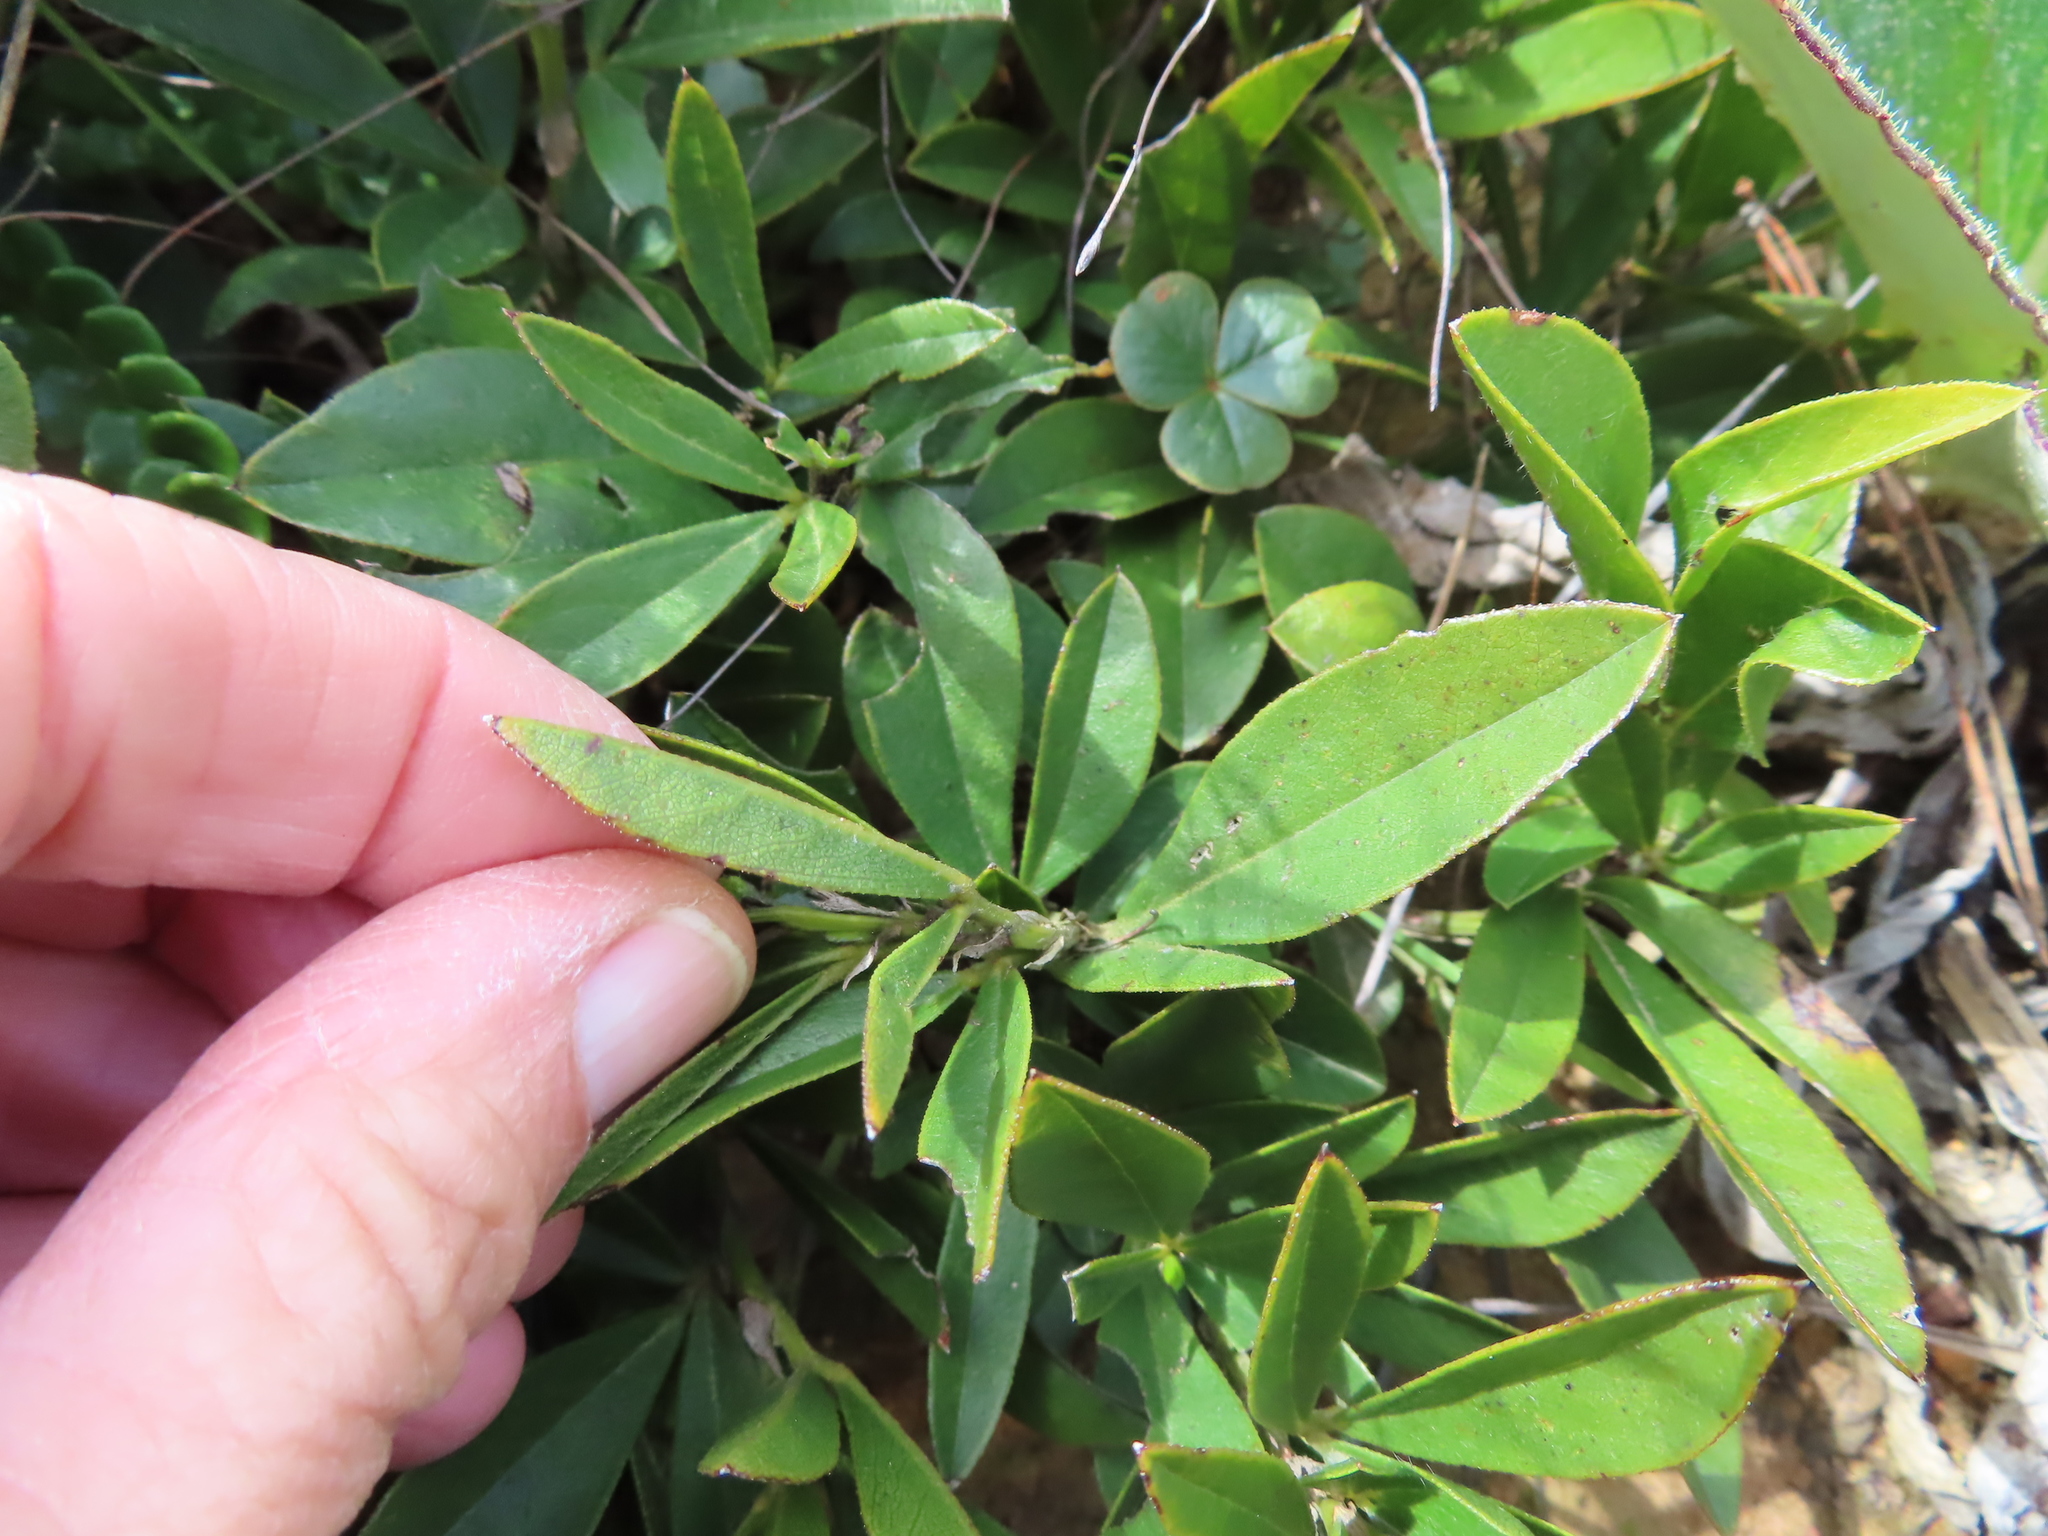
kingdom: Plantae
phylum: Tracheophyta
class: Magnoliopsida
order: Fabales
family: Fabaceae
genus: Psoralea
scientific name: Psoralea zeyheri
